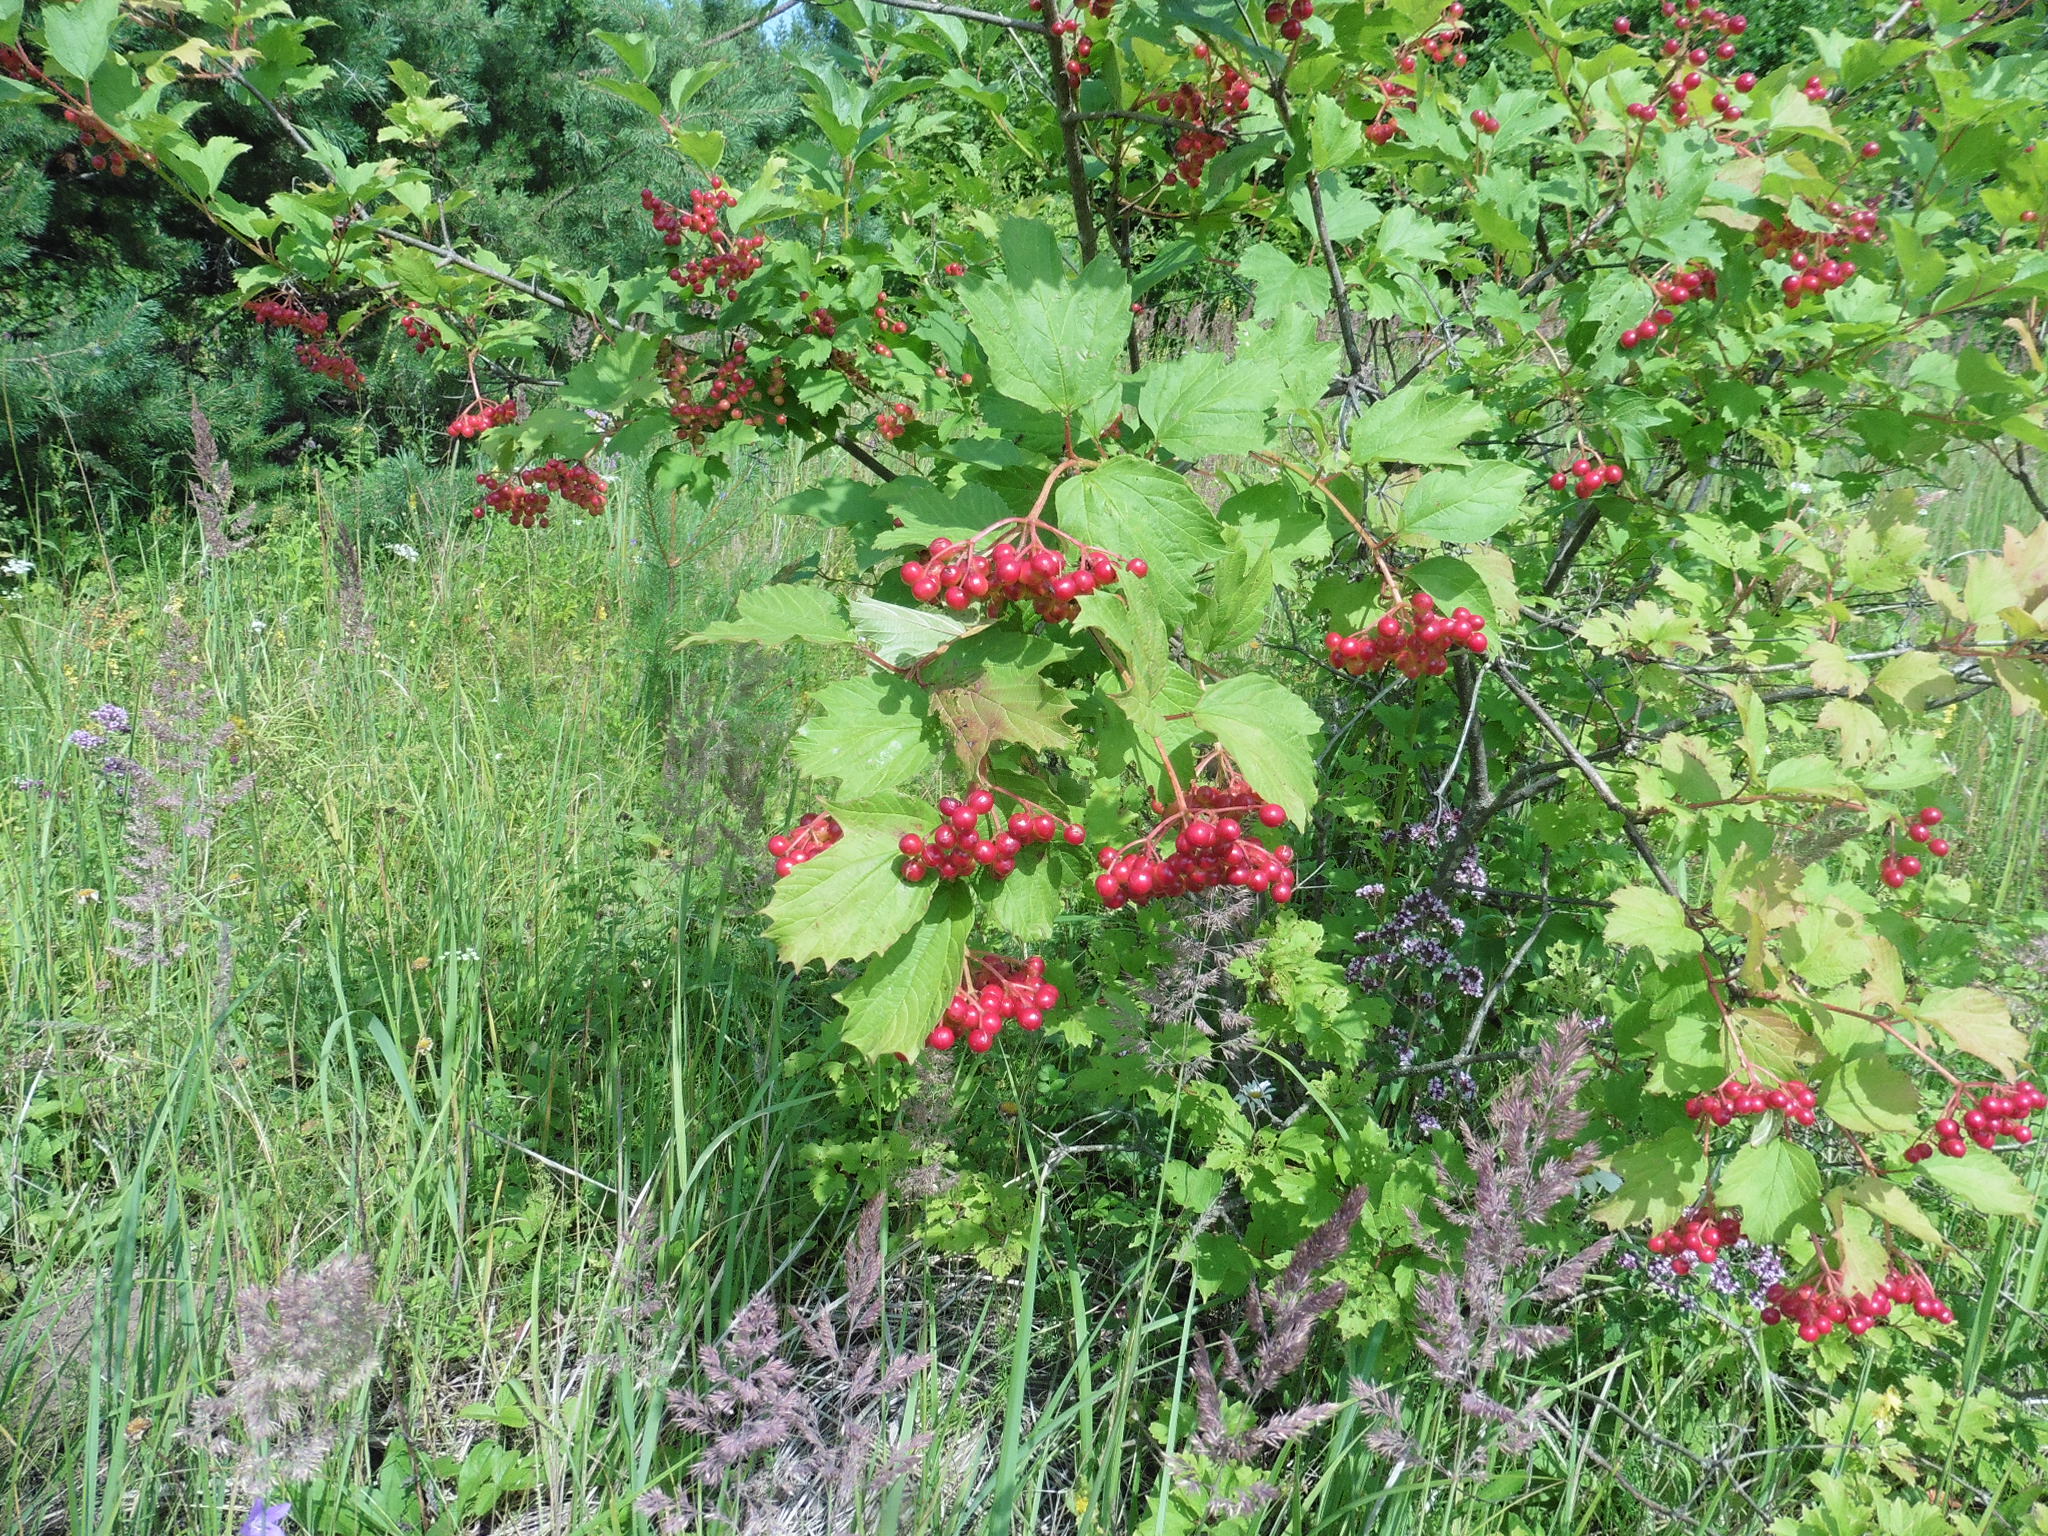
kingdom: Plantae
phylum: Tracheophyta
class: Magnoliopsida
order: Dipsacales
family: Viburnaceae
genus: Viburnum
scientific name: Viburnum opulus
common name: Guelder-rose
